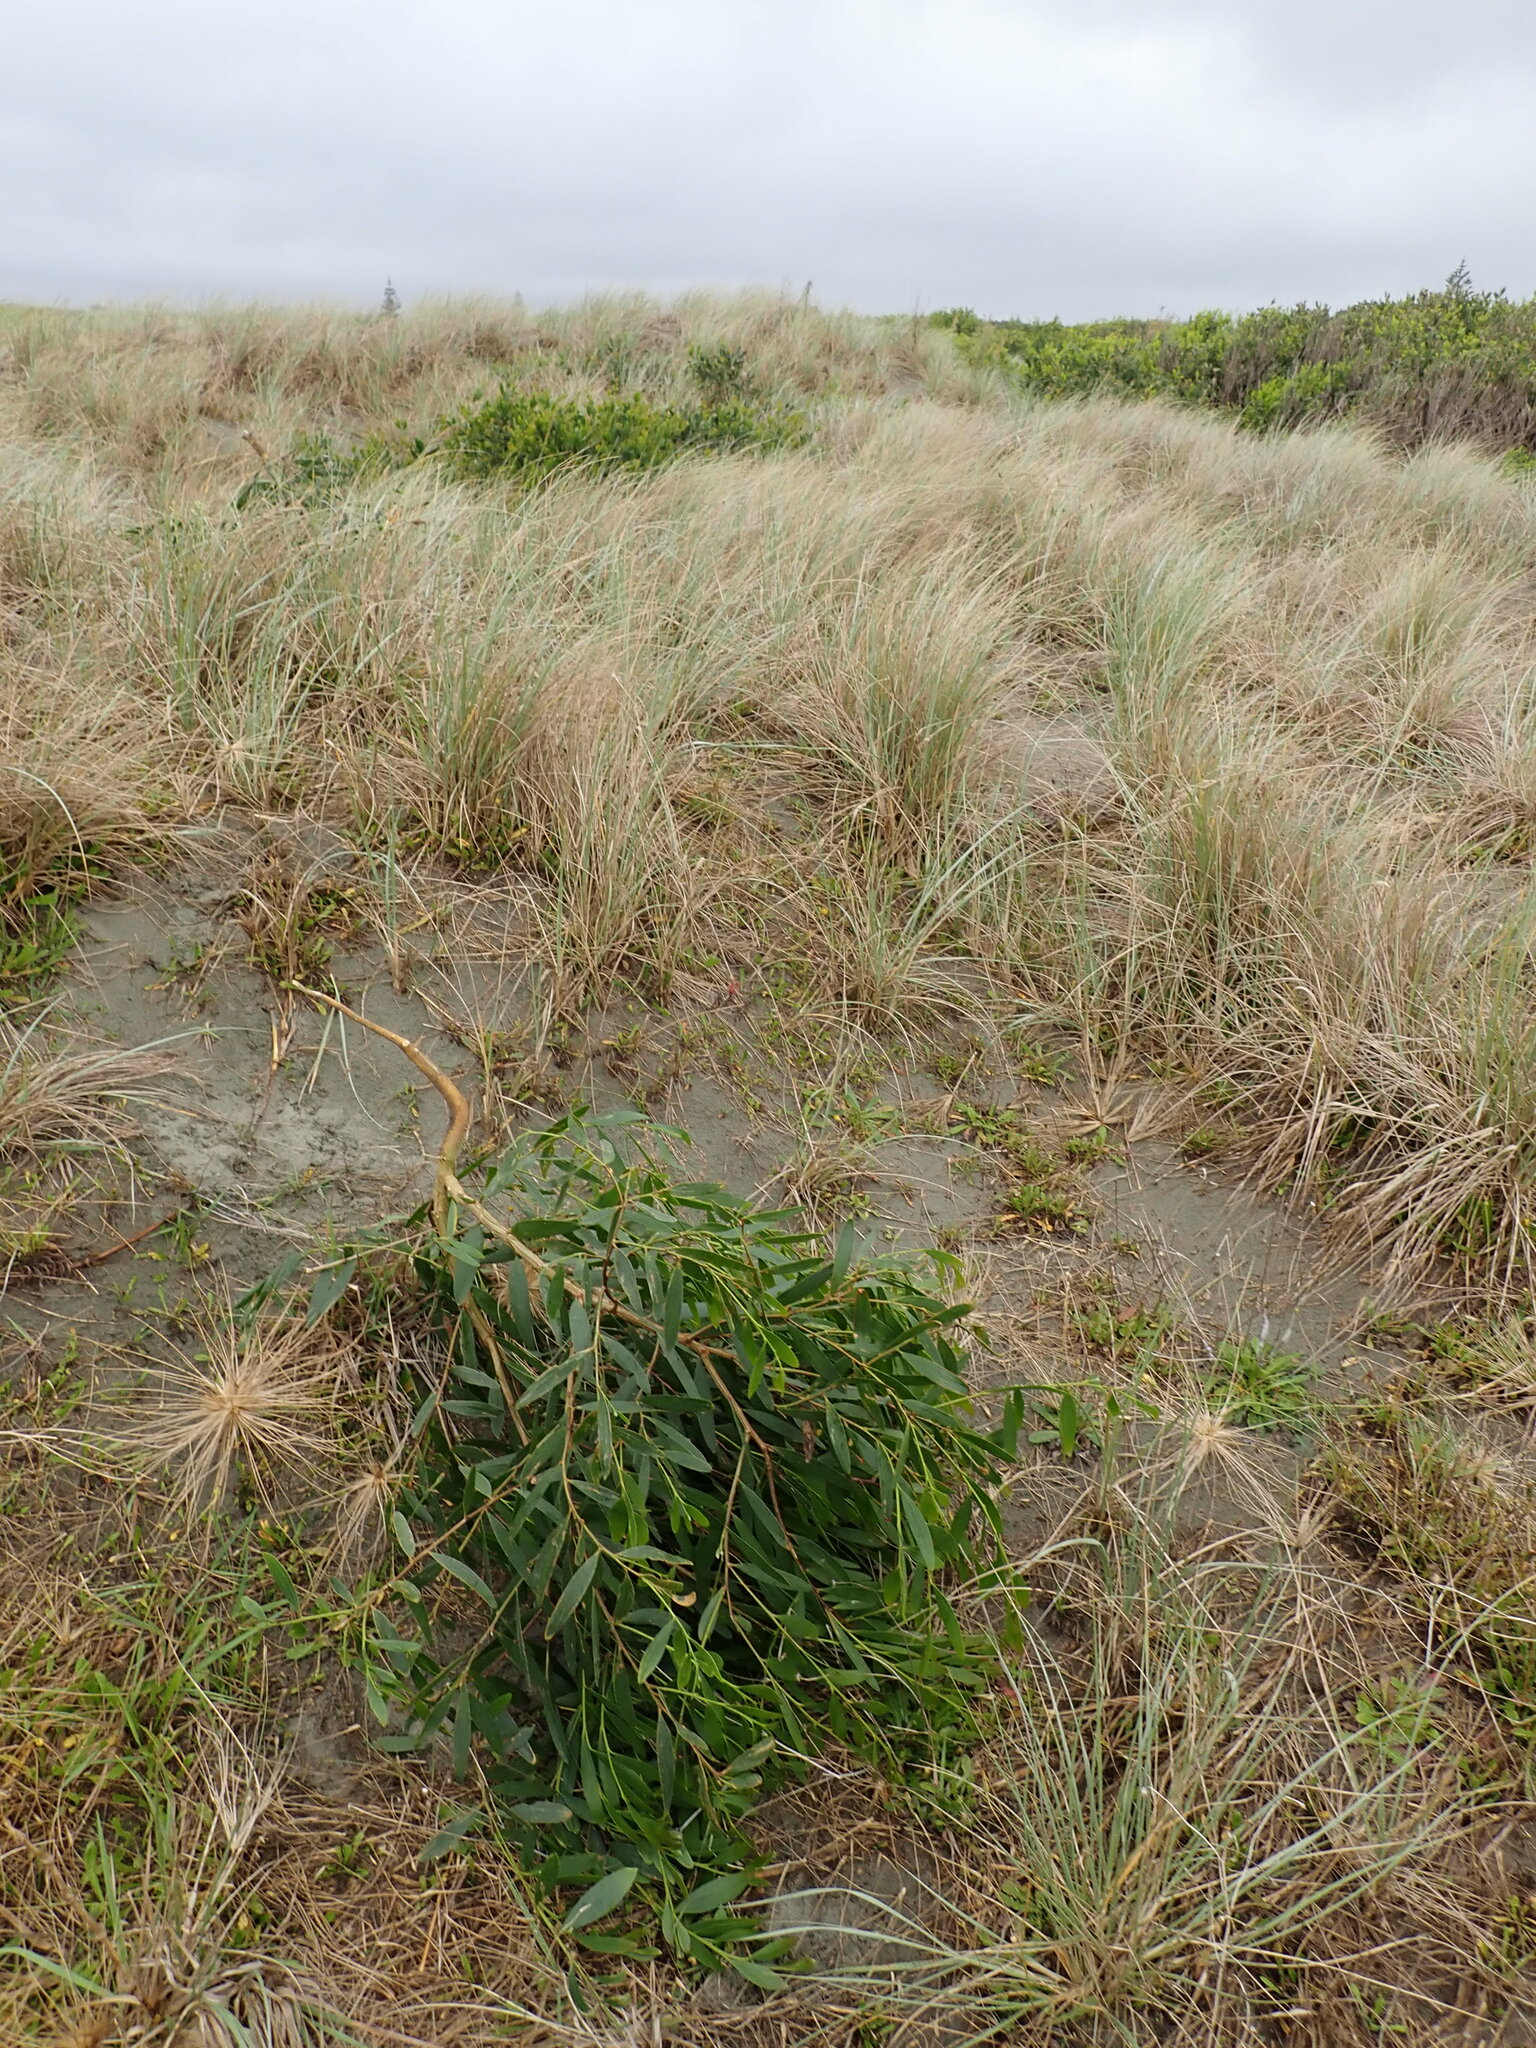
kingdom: Plantae
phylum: Tracheophyta
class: Magnoliopsida
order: Fabales
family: Fabaceae
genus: Acacia
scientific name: Acacia longifolia
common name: Sydney golden wattle
